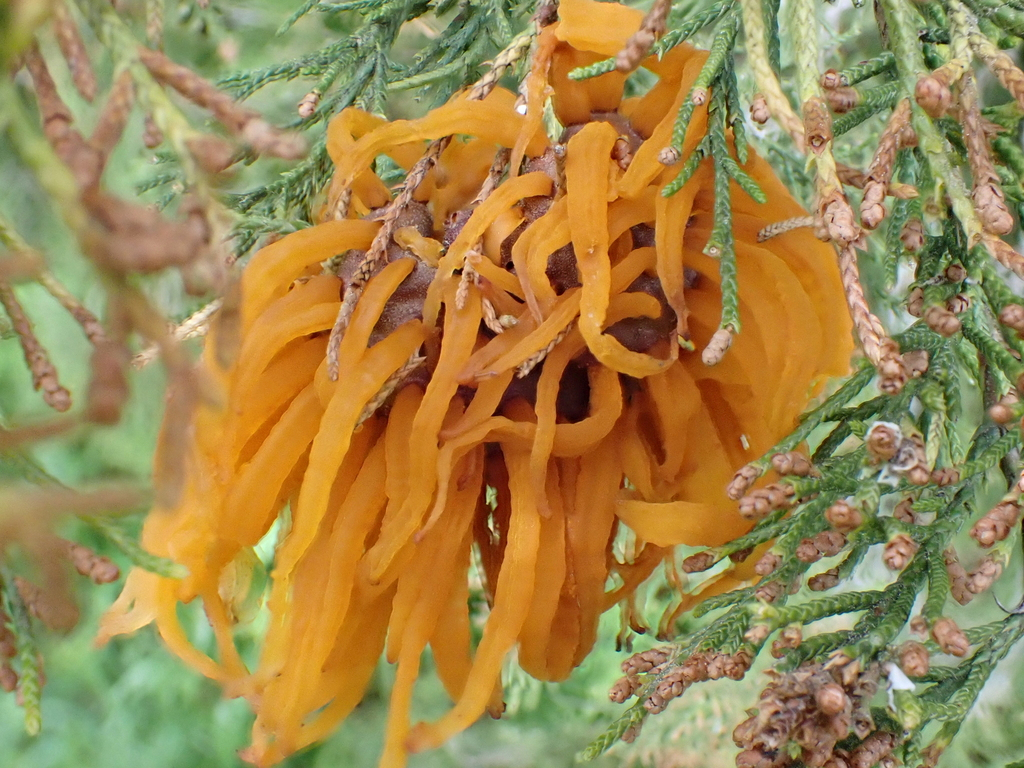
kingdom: Fungi
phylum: Basidiomycota
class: Pucciniomycetes
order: Pucciniales
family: Gymnosporangiaceae
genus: Gymnosporangium
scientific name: Gymnosporangium juniperi-virginianae
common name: Juniper-apple rust
